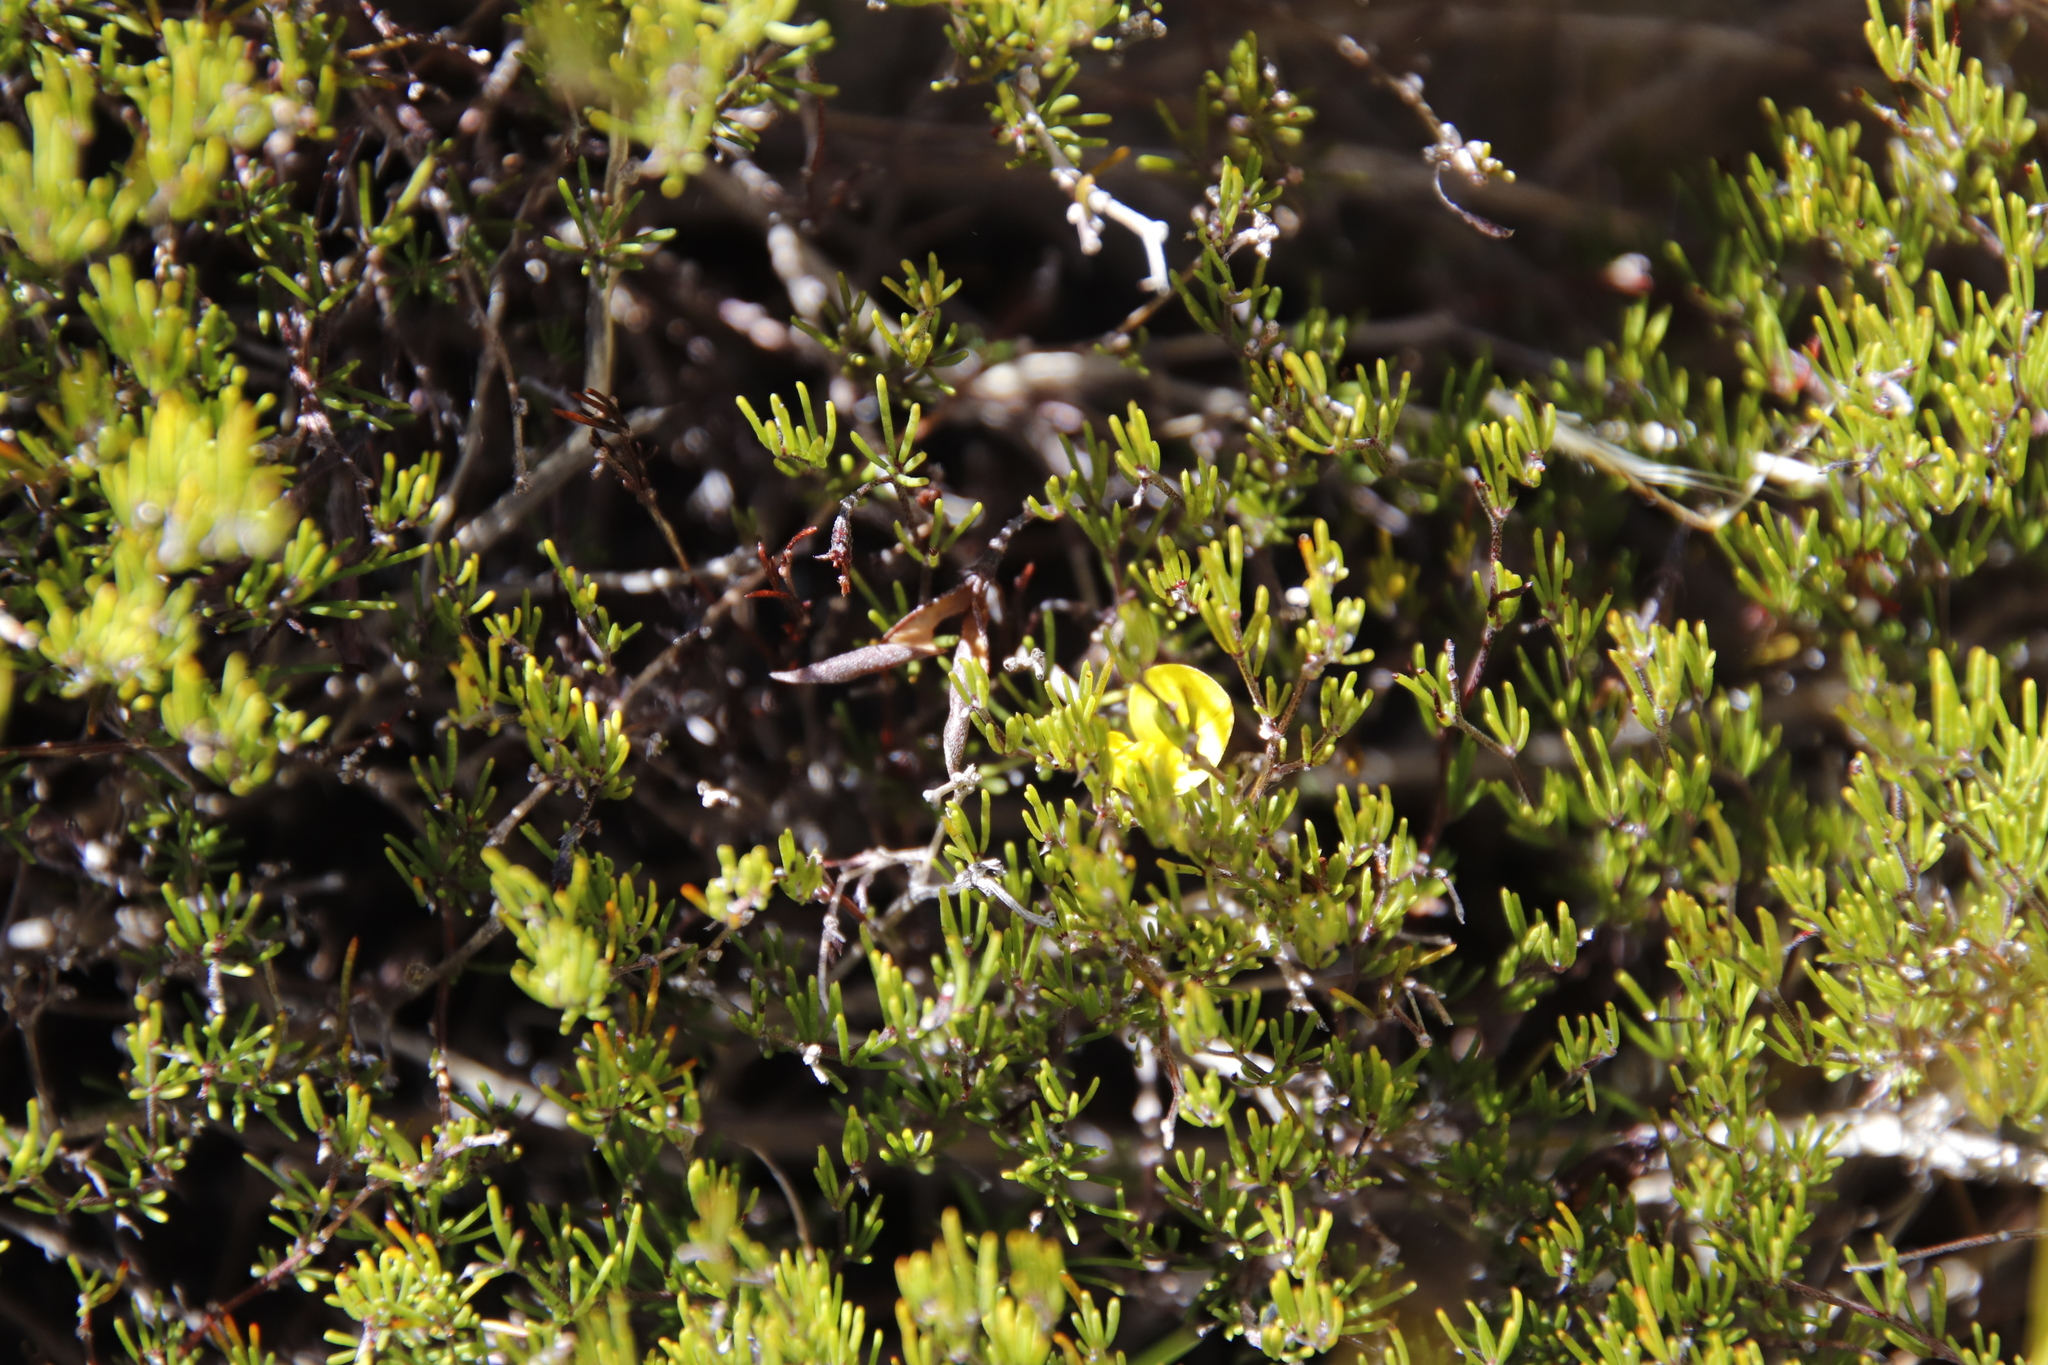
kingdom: Plantae
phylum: Tracheophyta
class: Magnoliopsida
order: Fabales
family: Fabaceae
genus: Aspalathus
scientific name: Aspalathus bracteata
